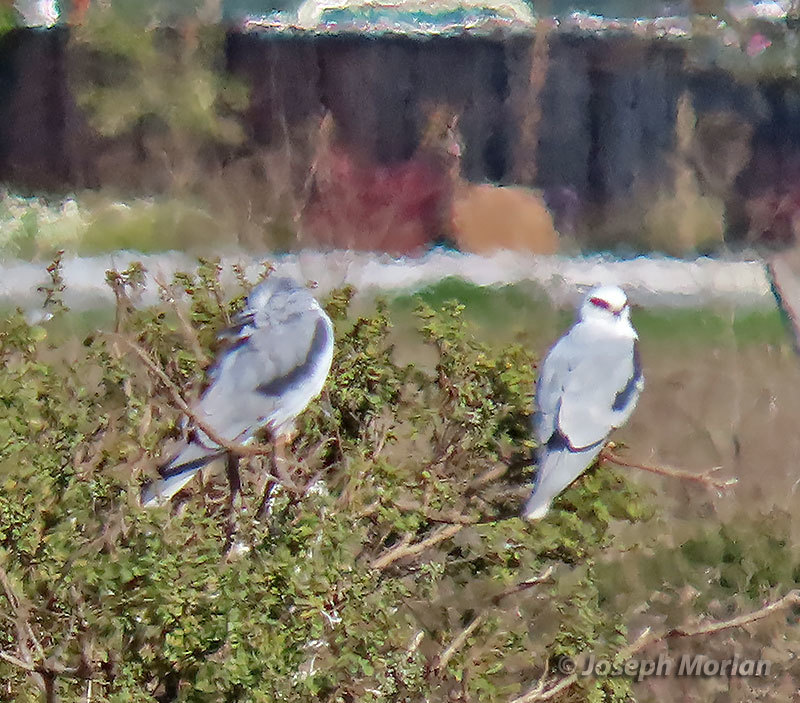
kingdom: Animalia
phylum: Chordata
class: Aves
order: Accipitriformes
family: Accipitridae
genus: Elanus
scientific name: Elanus leucurus
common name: White-tailed kite
